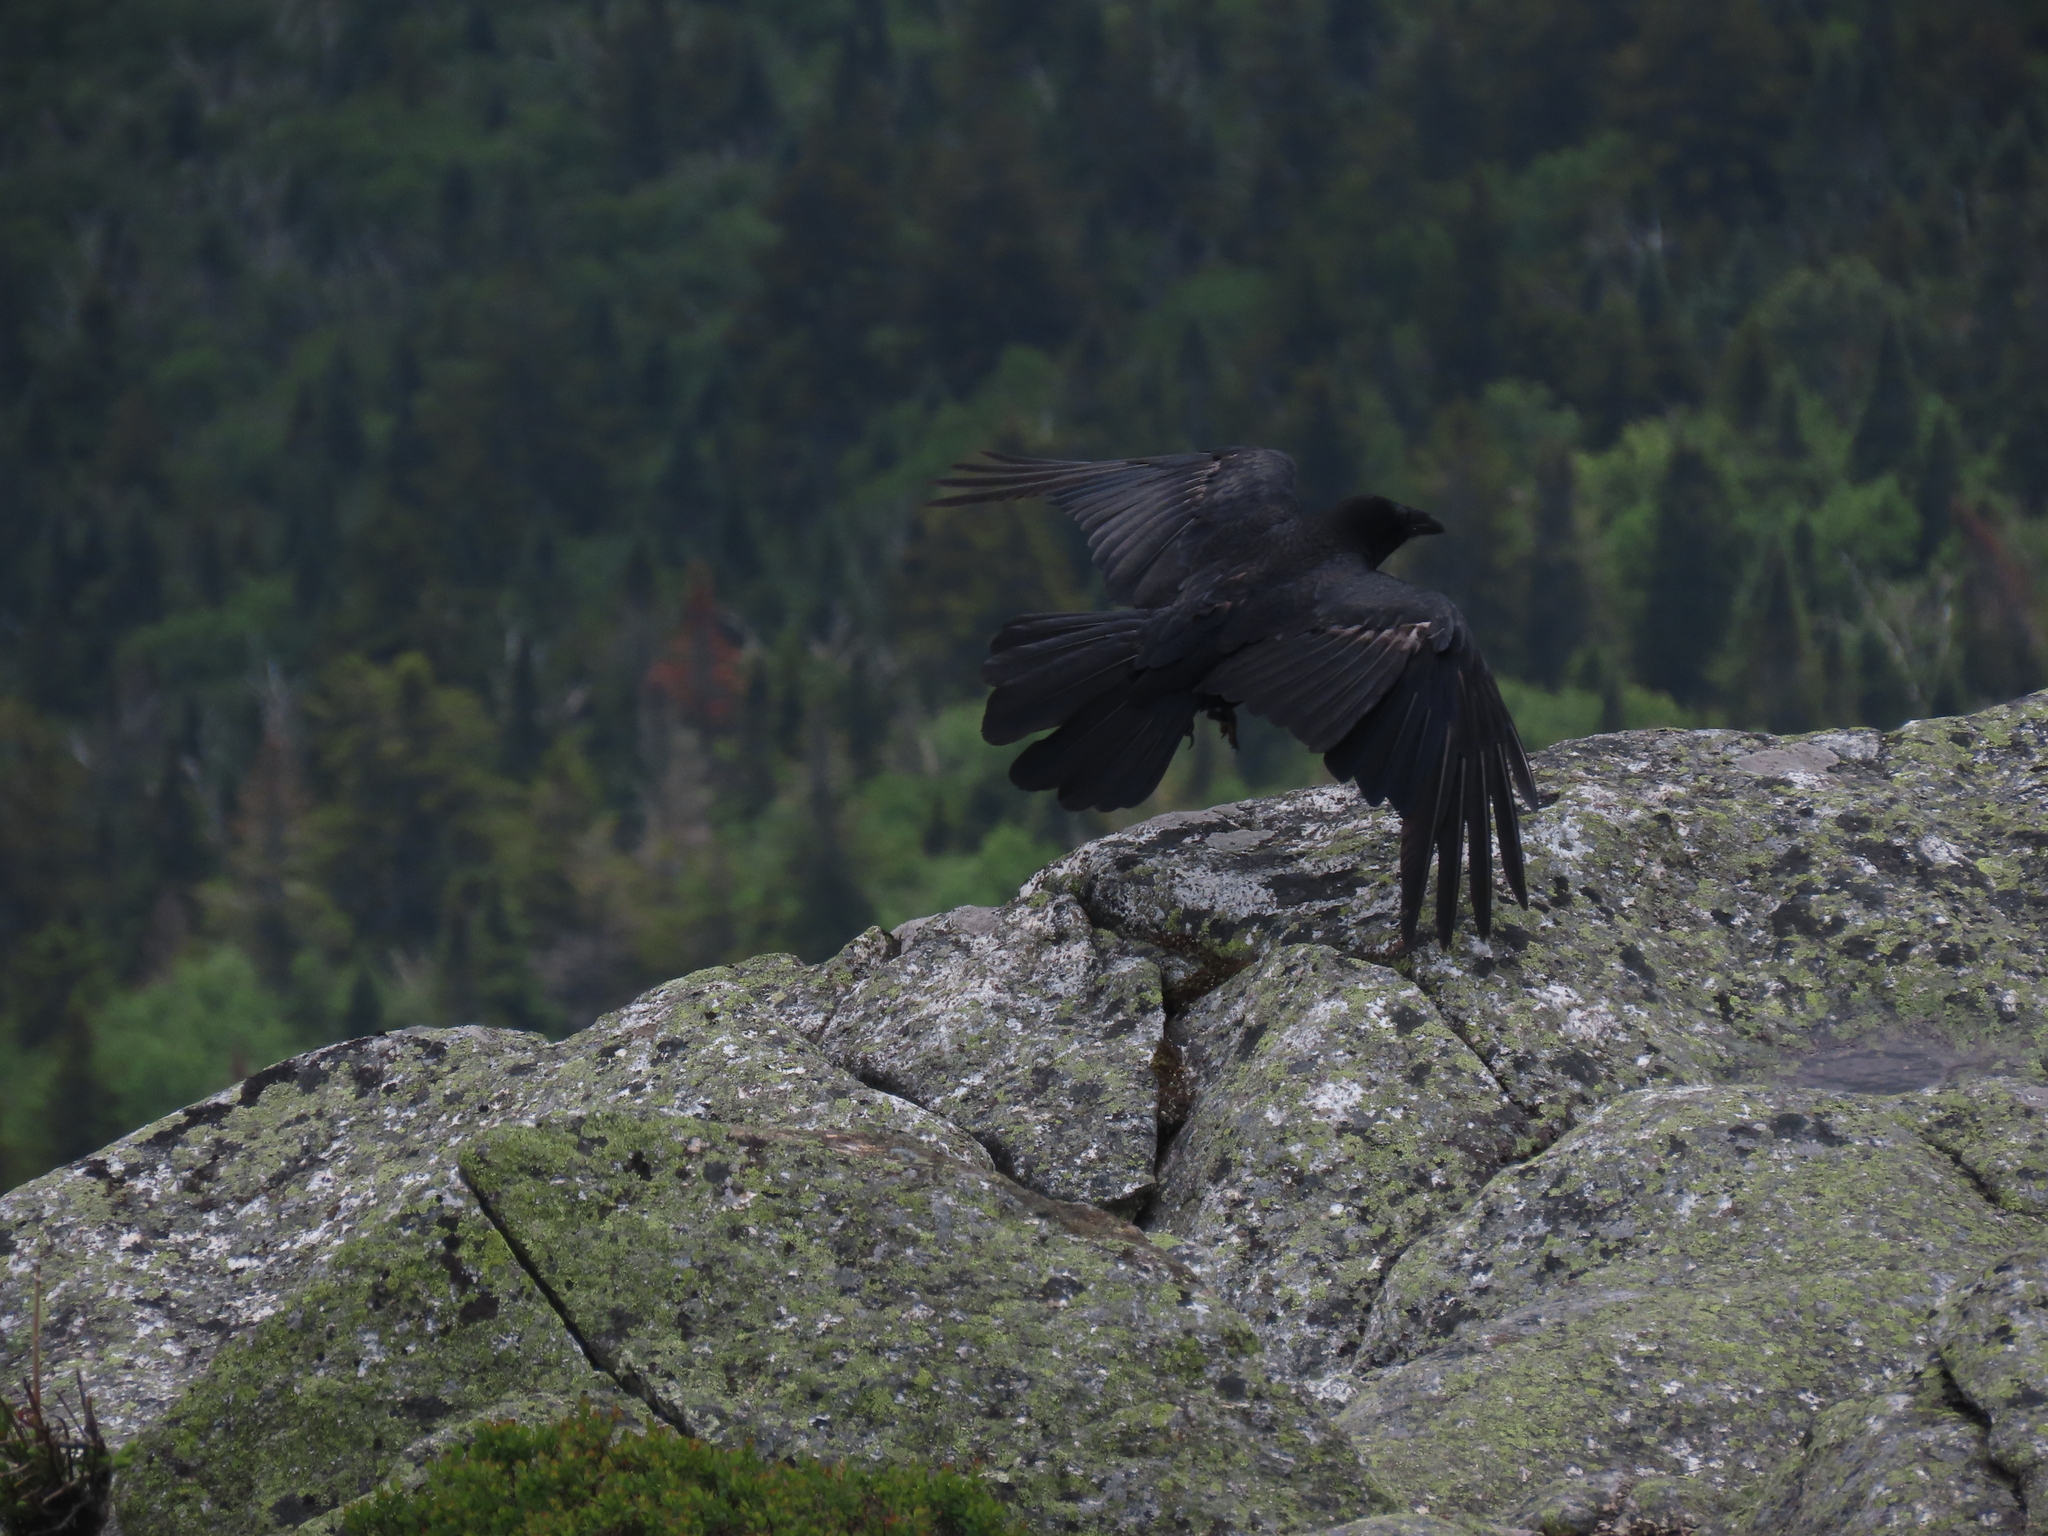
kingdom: Animalia
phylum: Chordata
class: Aves
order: Passeriformes
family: Corvidae
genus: Corvus
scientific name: Corvus corax
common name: Common raven
